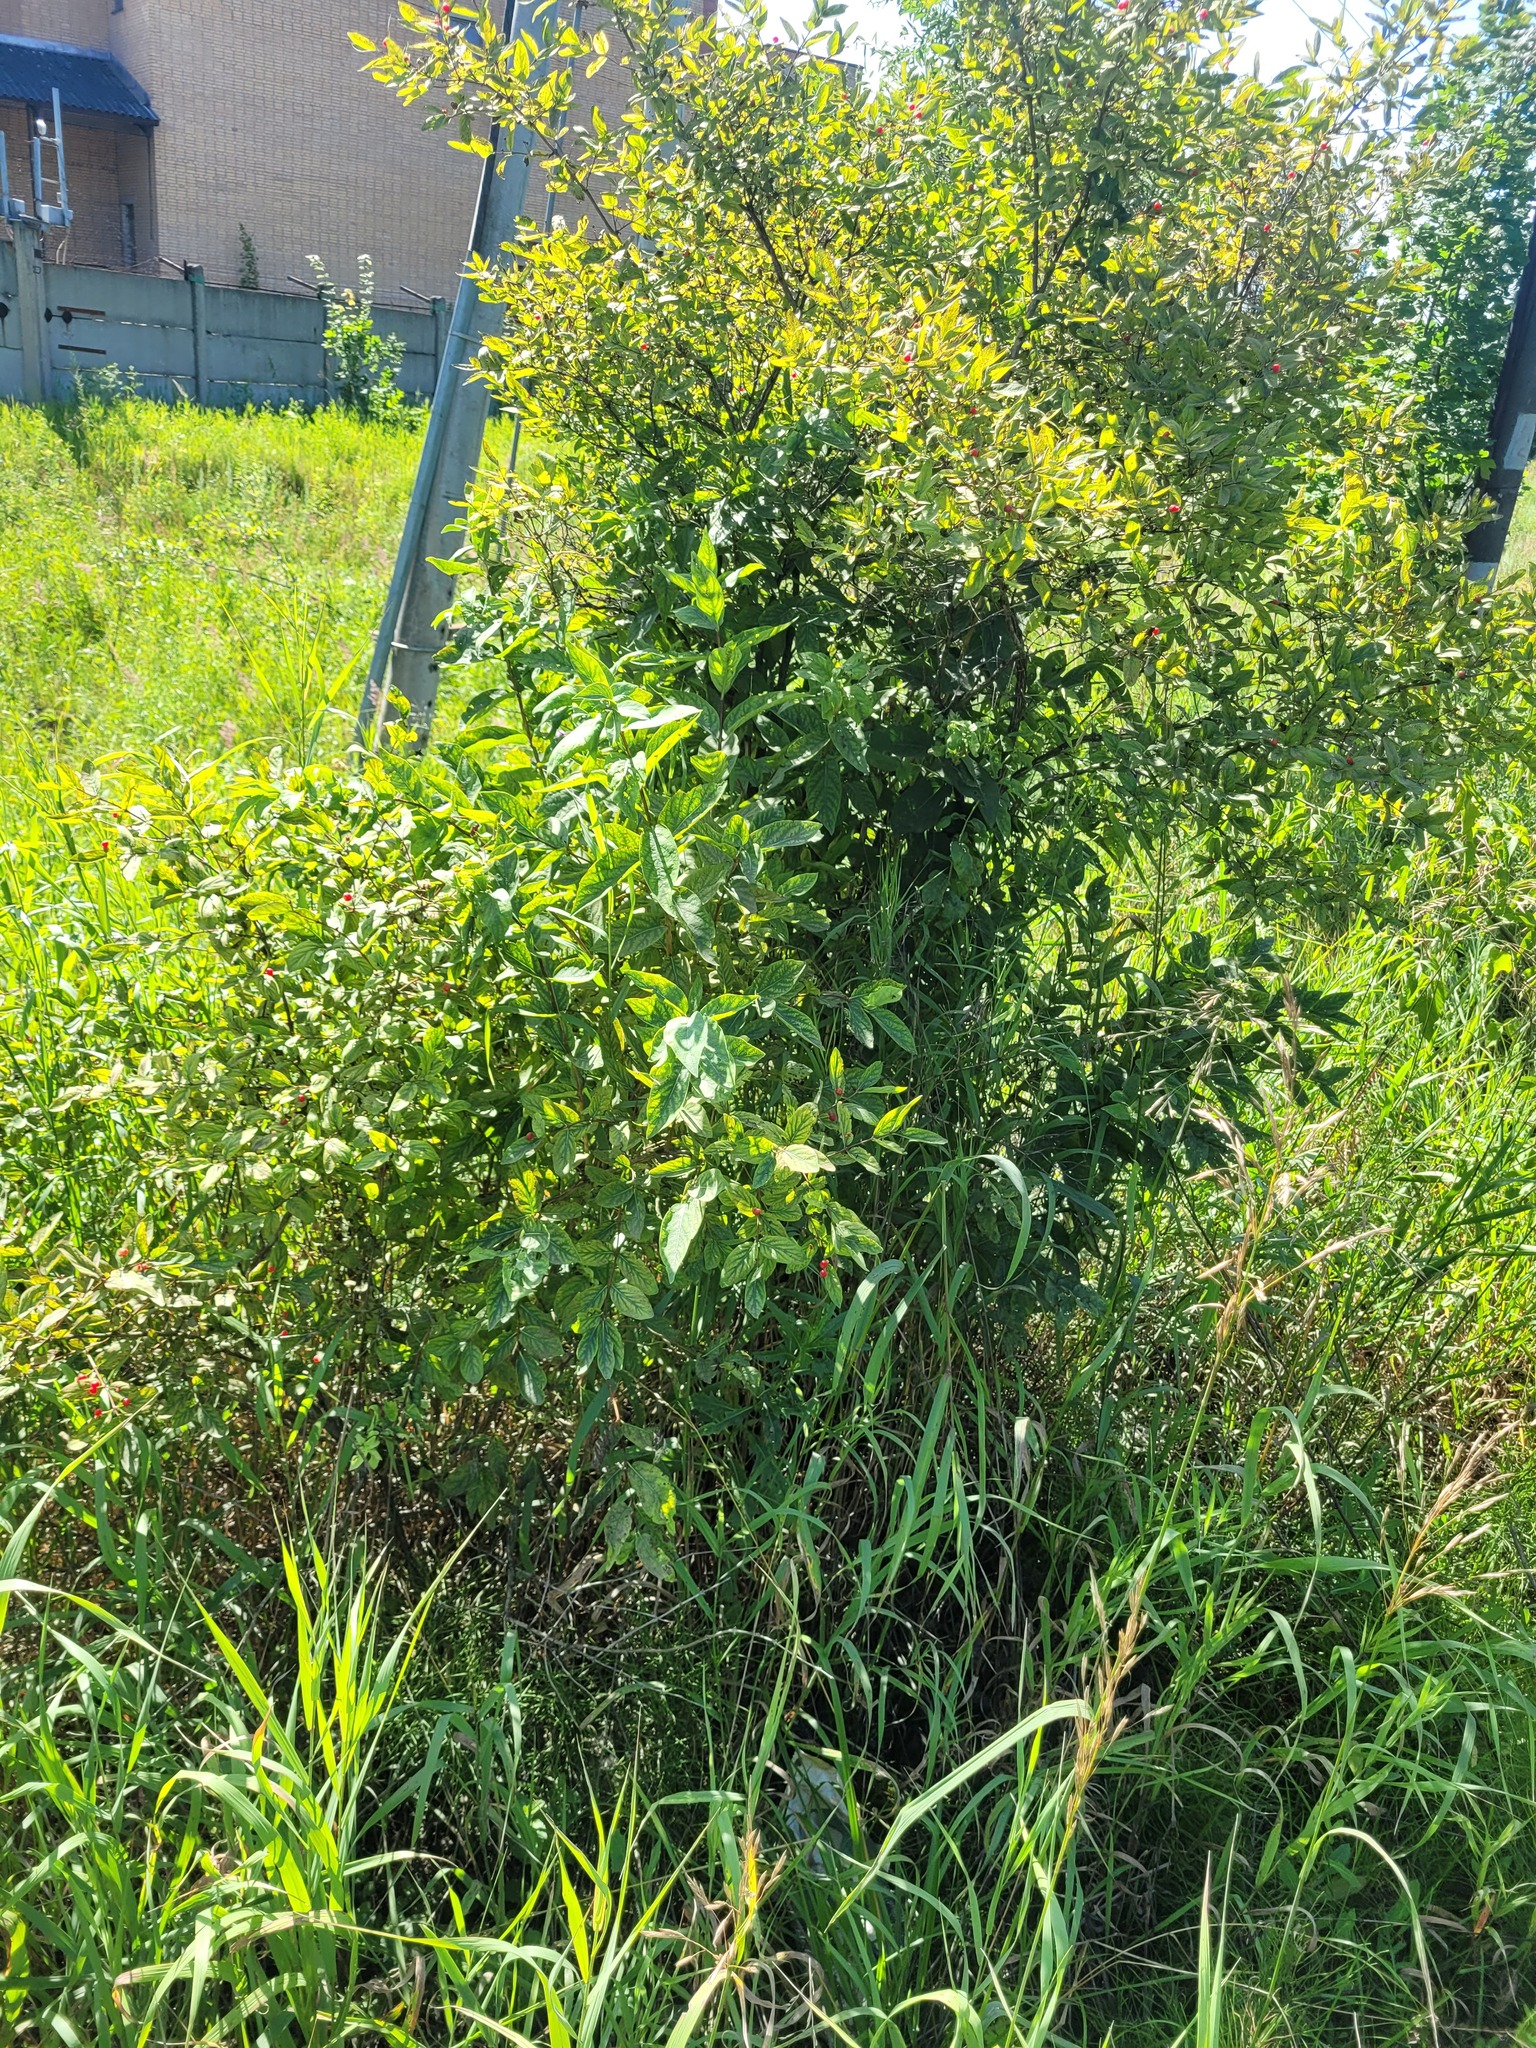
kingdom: Plantae
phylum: Tracheophyta
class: Magnoliopsida
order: Dipsacales
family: Caprifoliaceae
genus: Lonicera
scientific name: Lonicera tatarica
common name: Tatarian honeysuckle
